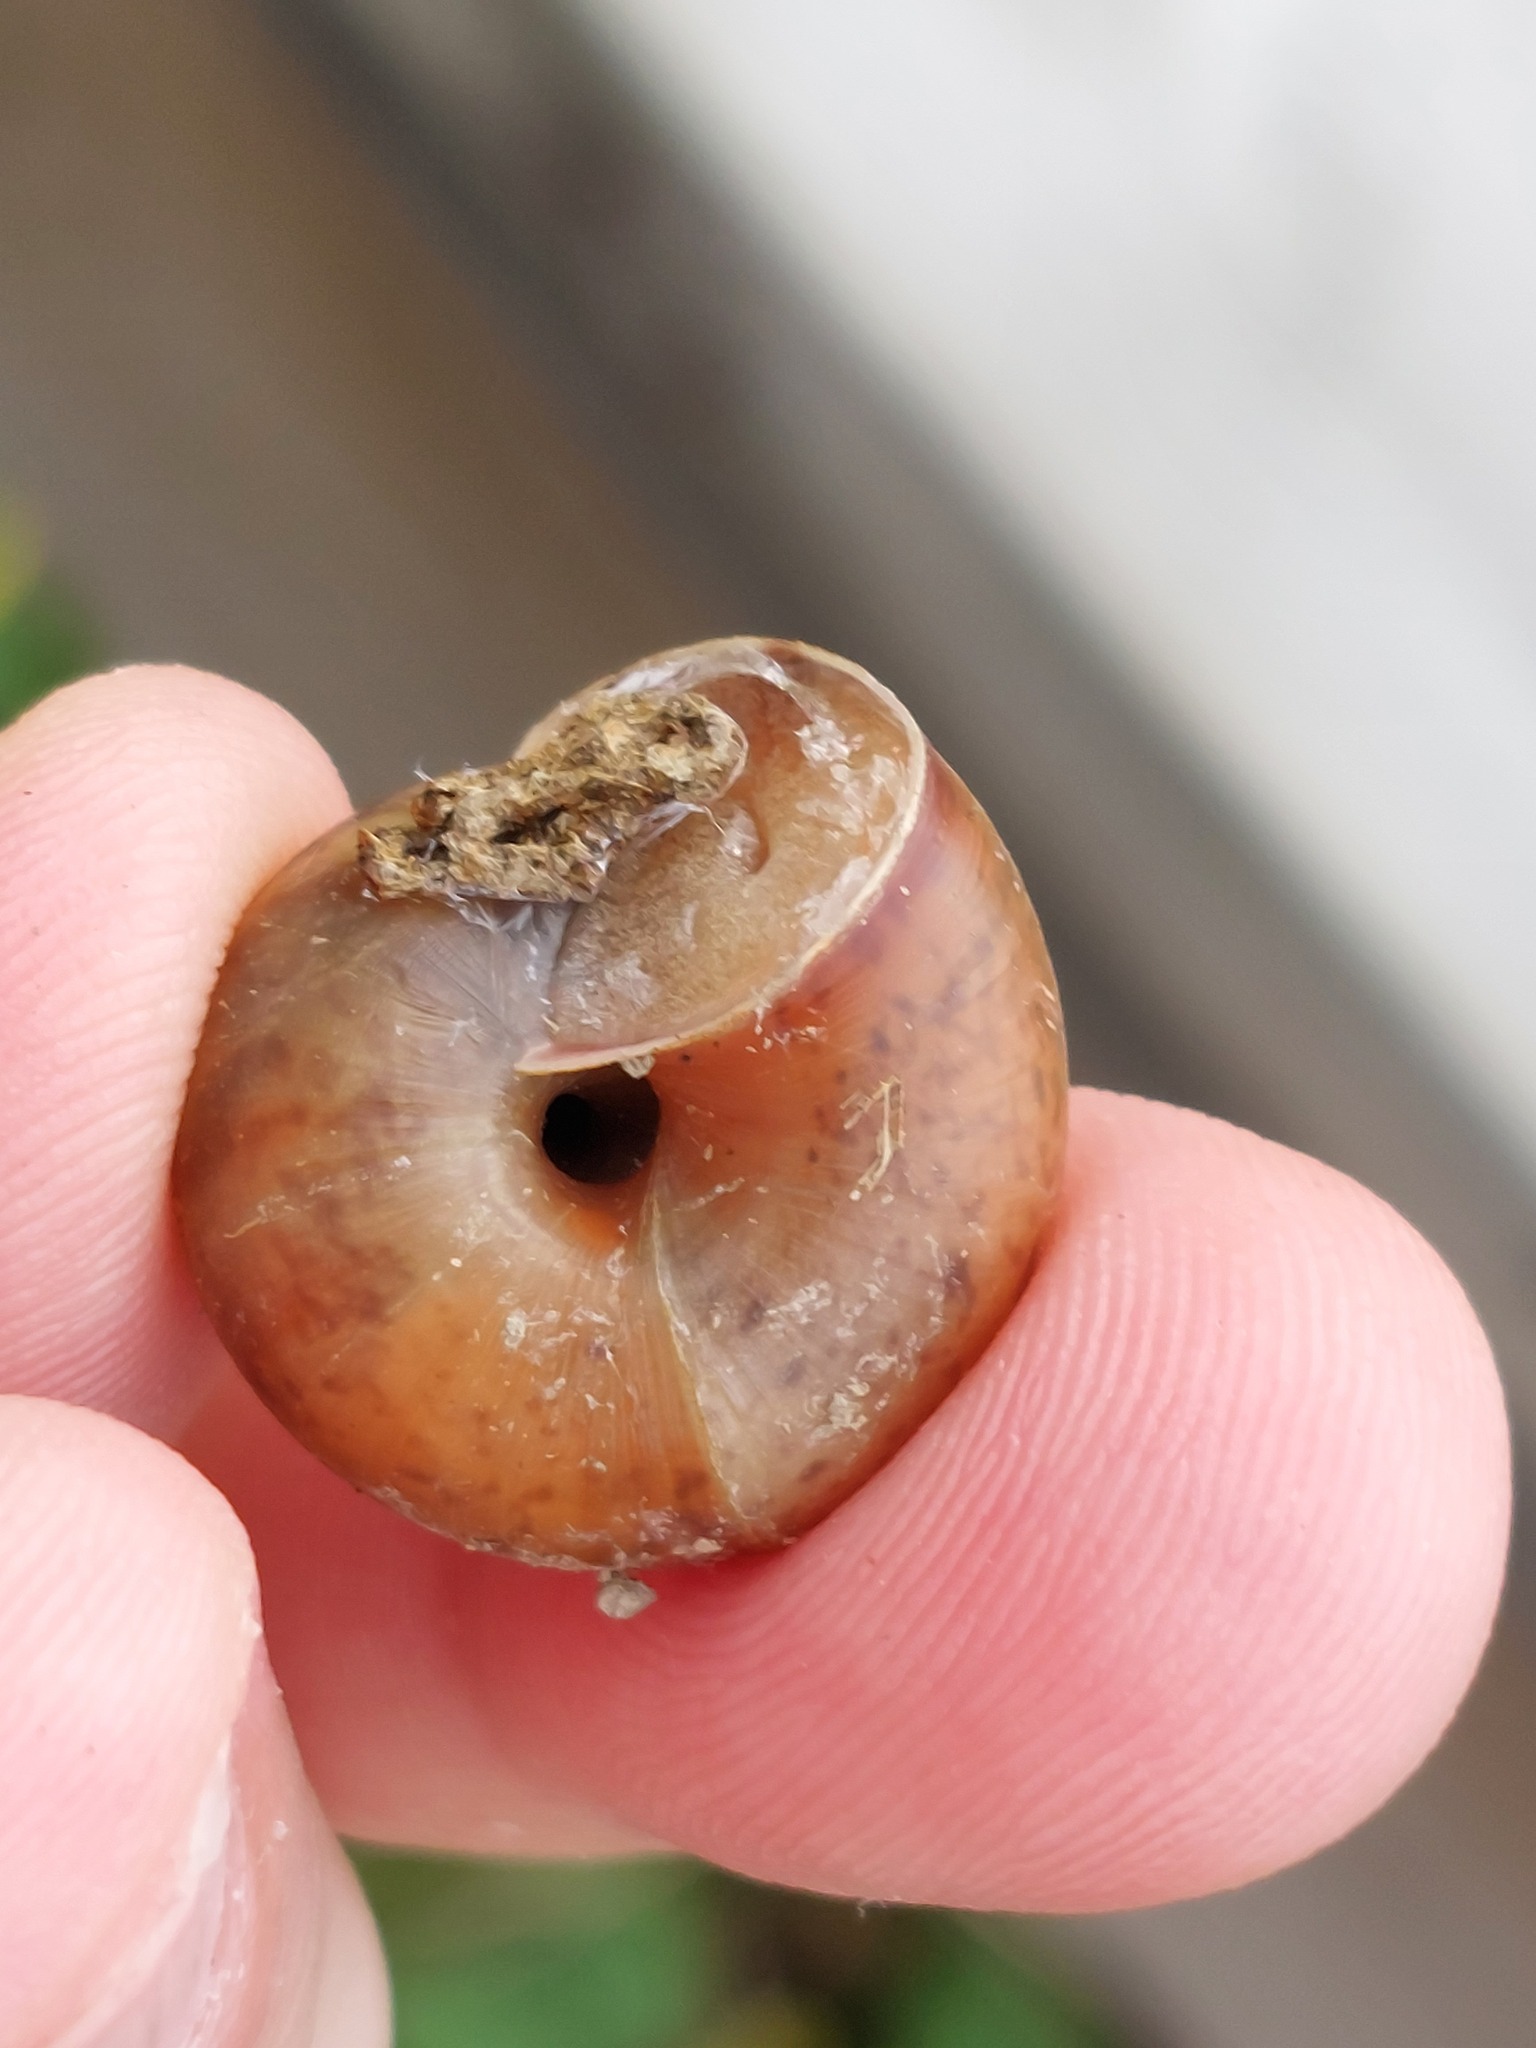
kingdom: Animalia
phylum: Mollusca
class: Gastropoda
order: Stylommatophora
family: Camaenidae
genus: Fruticicola
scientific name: Fruticicola fruticum
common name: Bush snail
